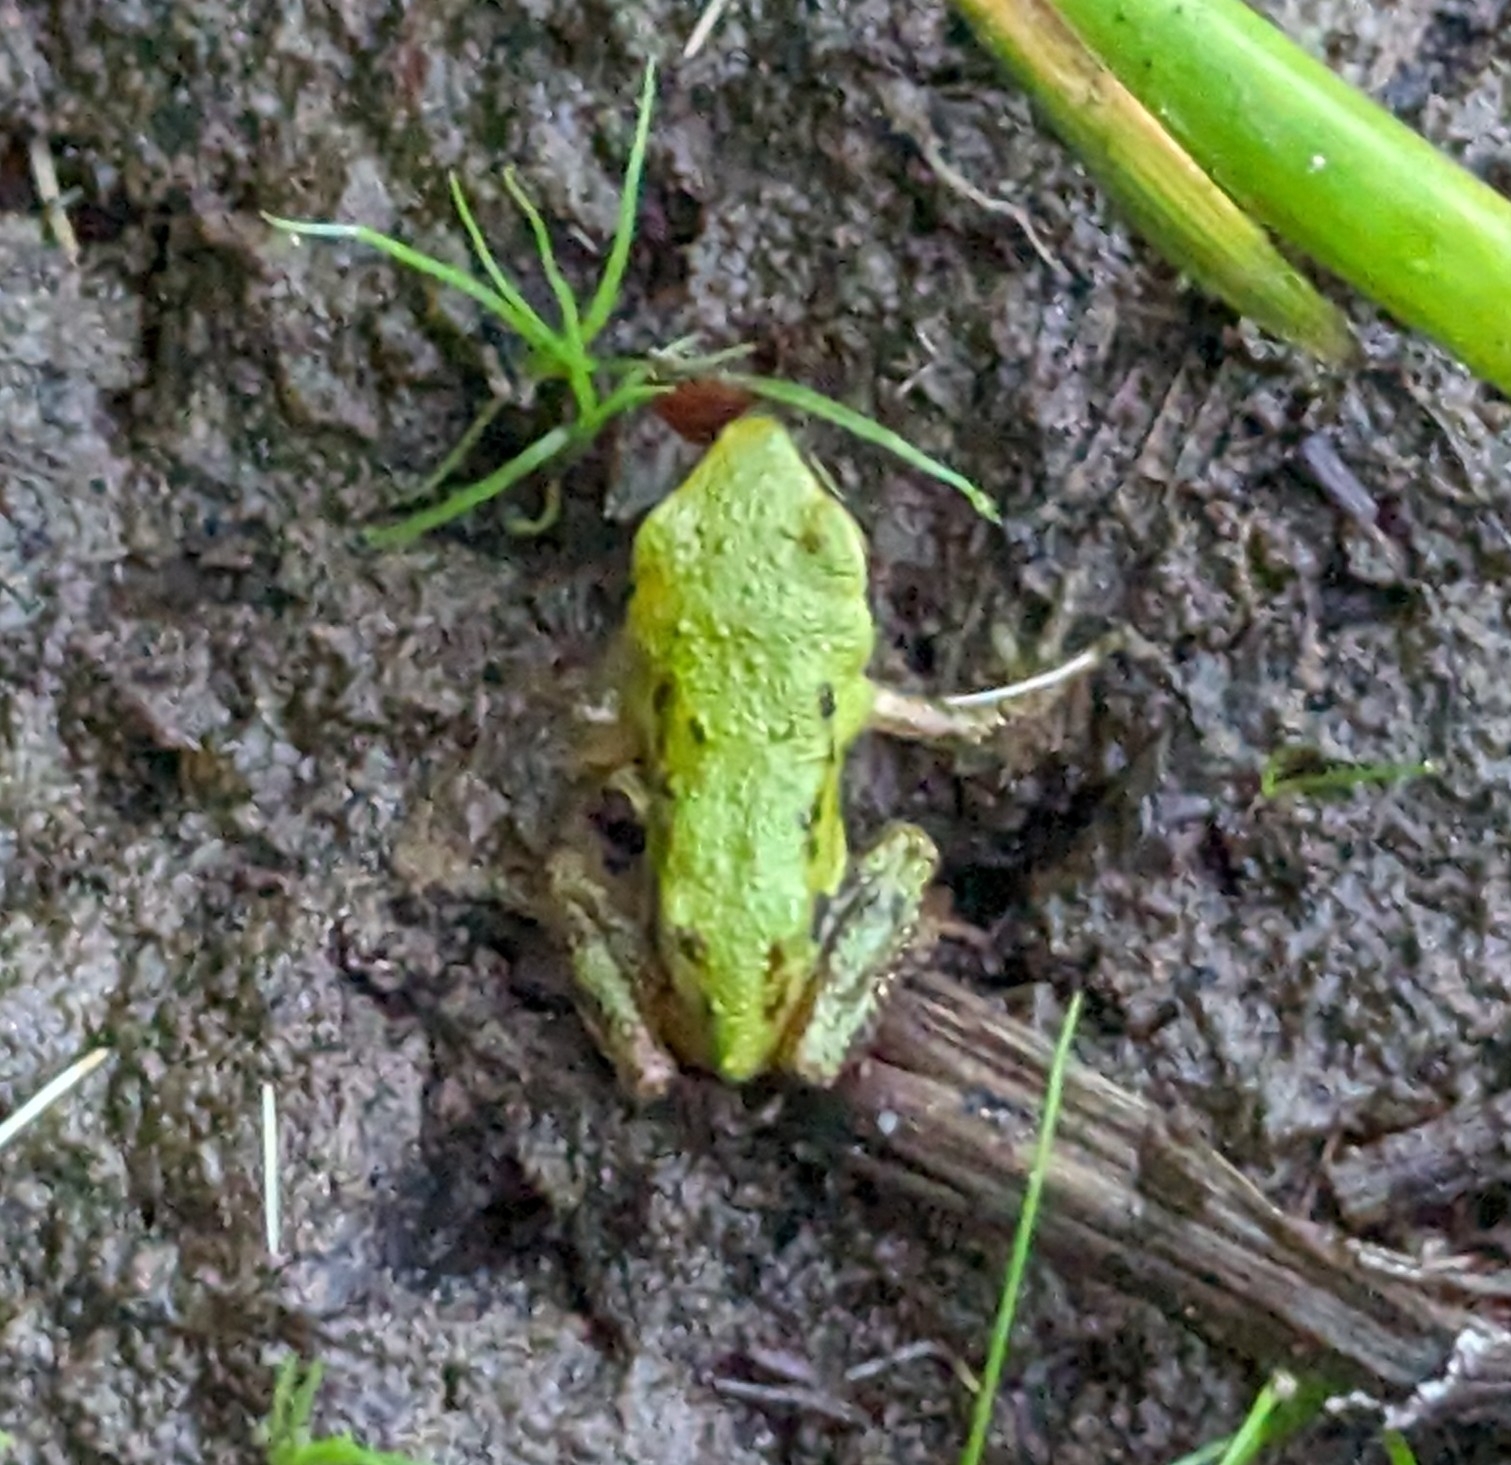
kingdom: Animalia
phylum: Chordata
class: Amphibia
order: Anura
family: Hylidae
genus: Pseudacris
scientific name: Pseudacris regilla
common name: Pacific chorus frog
